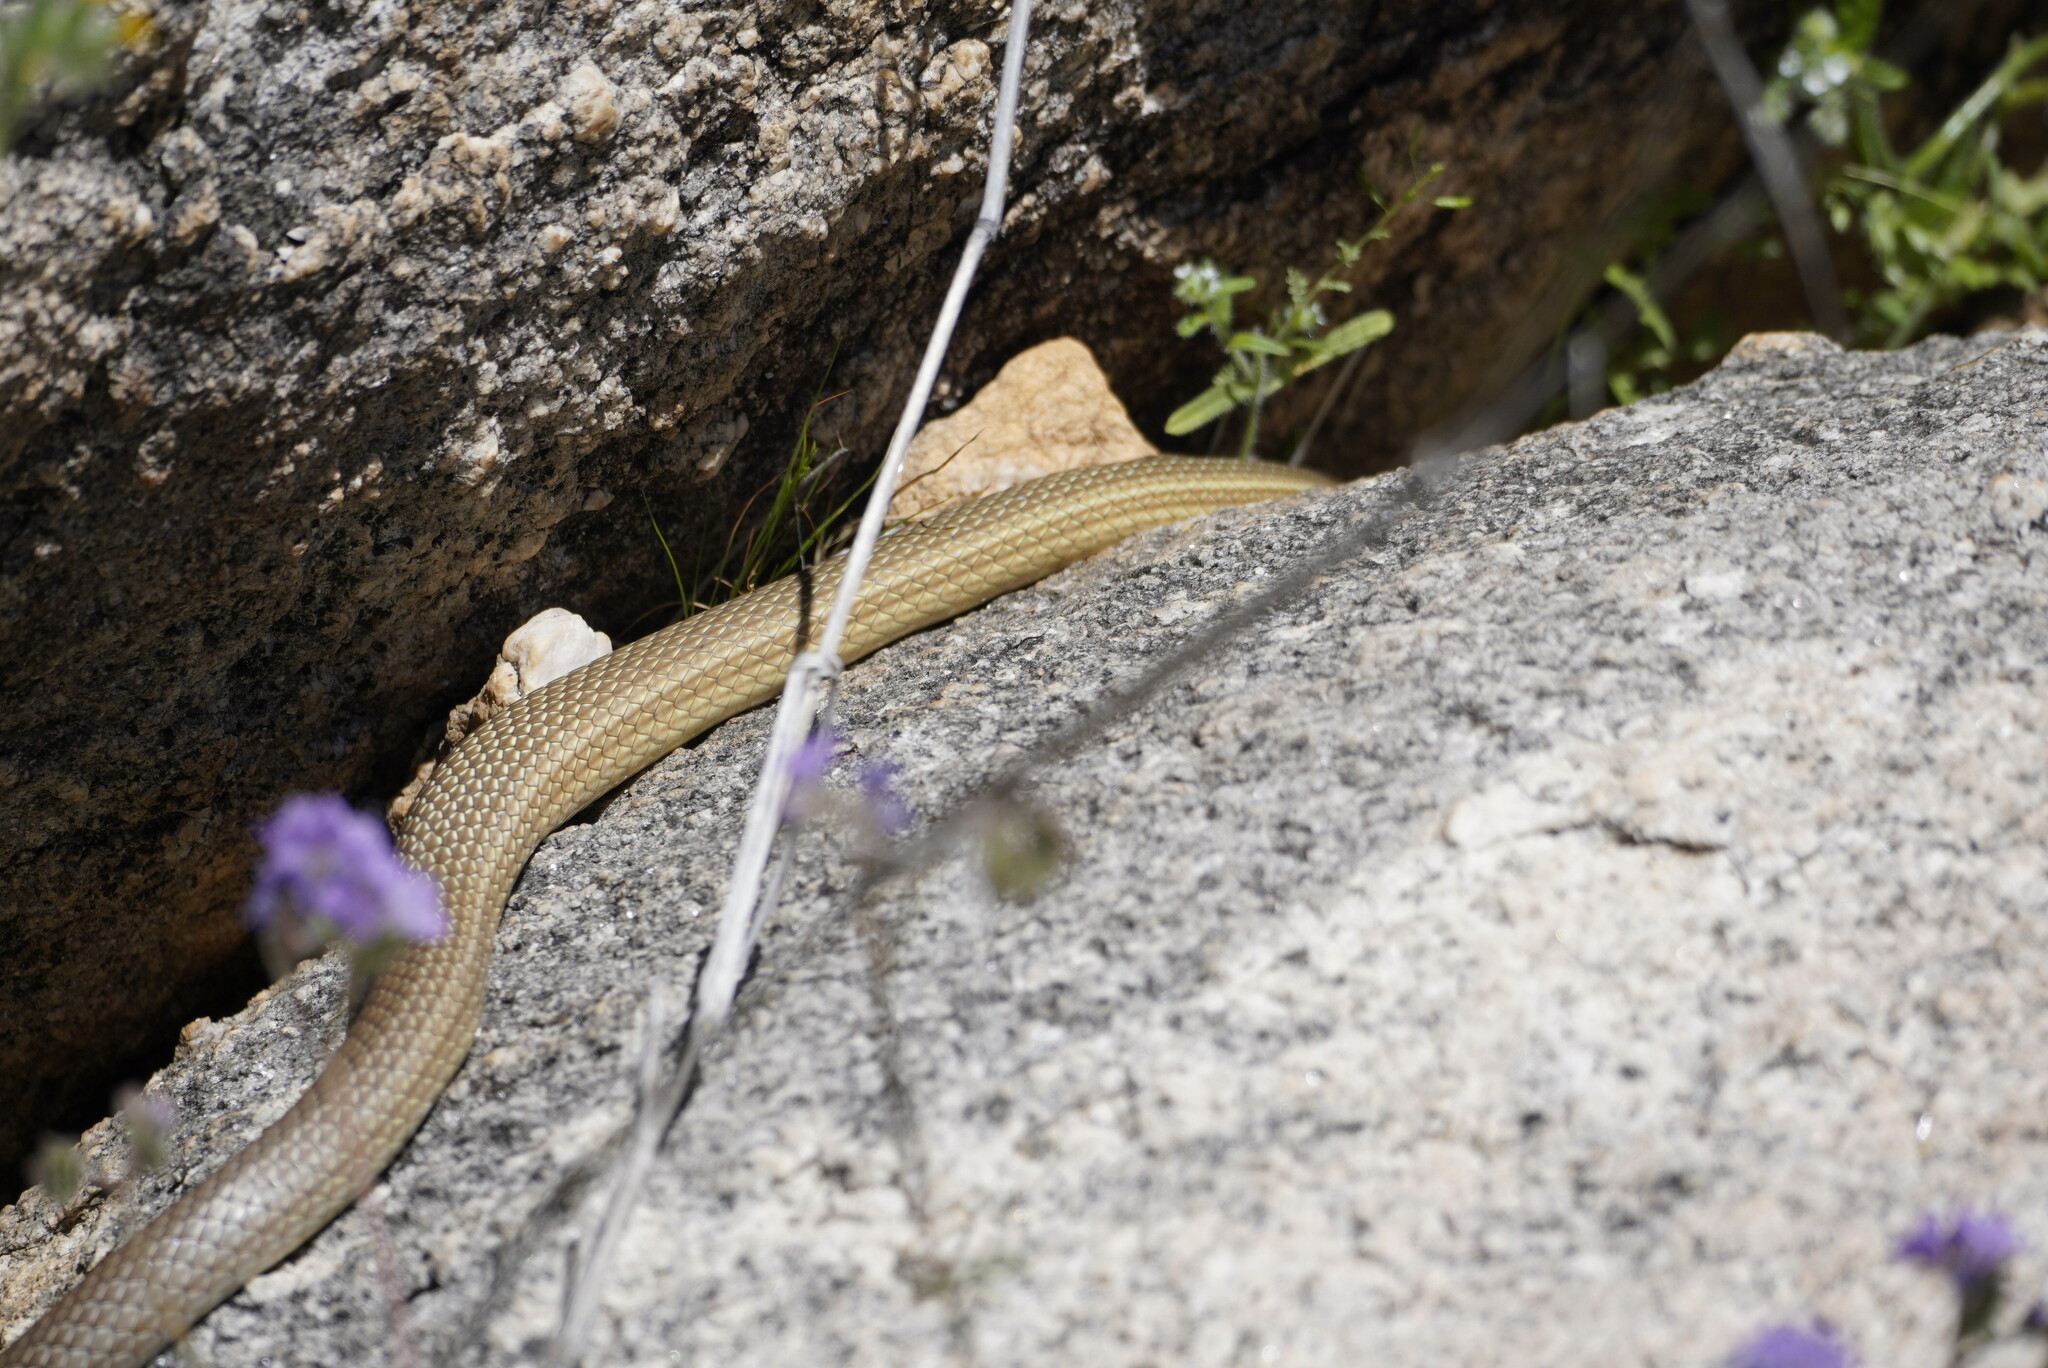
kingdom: Animalia
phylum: Chordata
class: Squamata
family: Colubridae
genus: Masticophis
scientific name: Masticophis bilineatus
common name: Sonoran whipsnake
